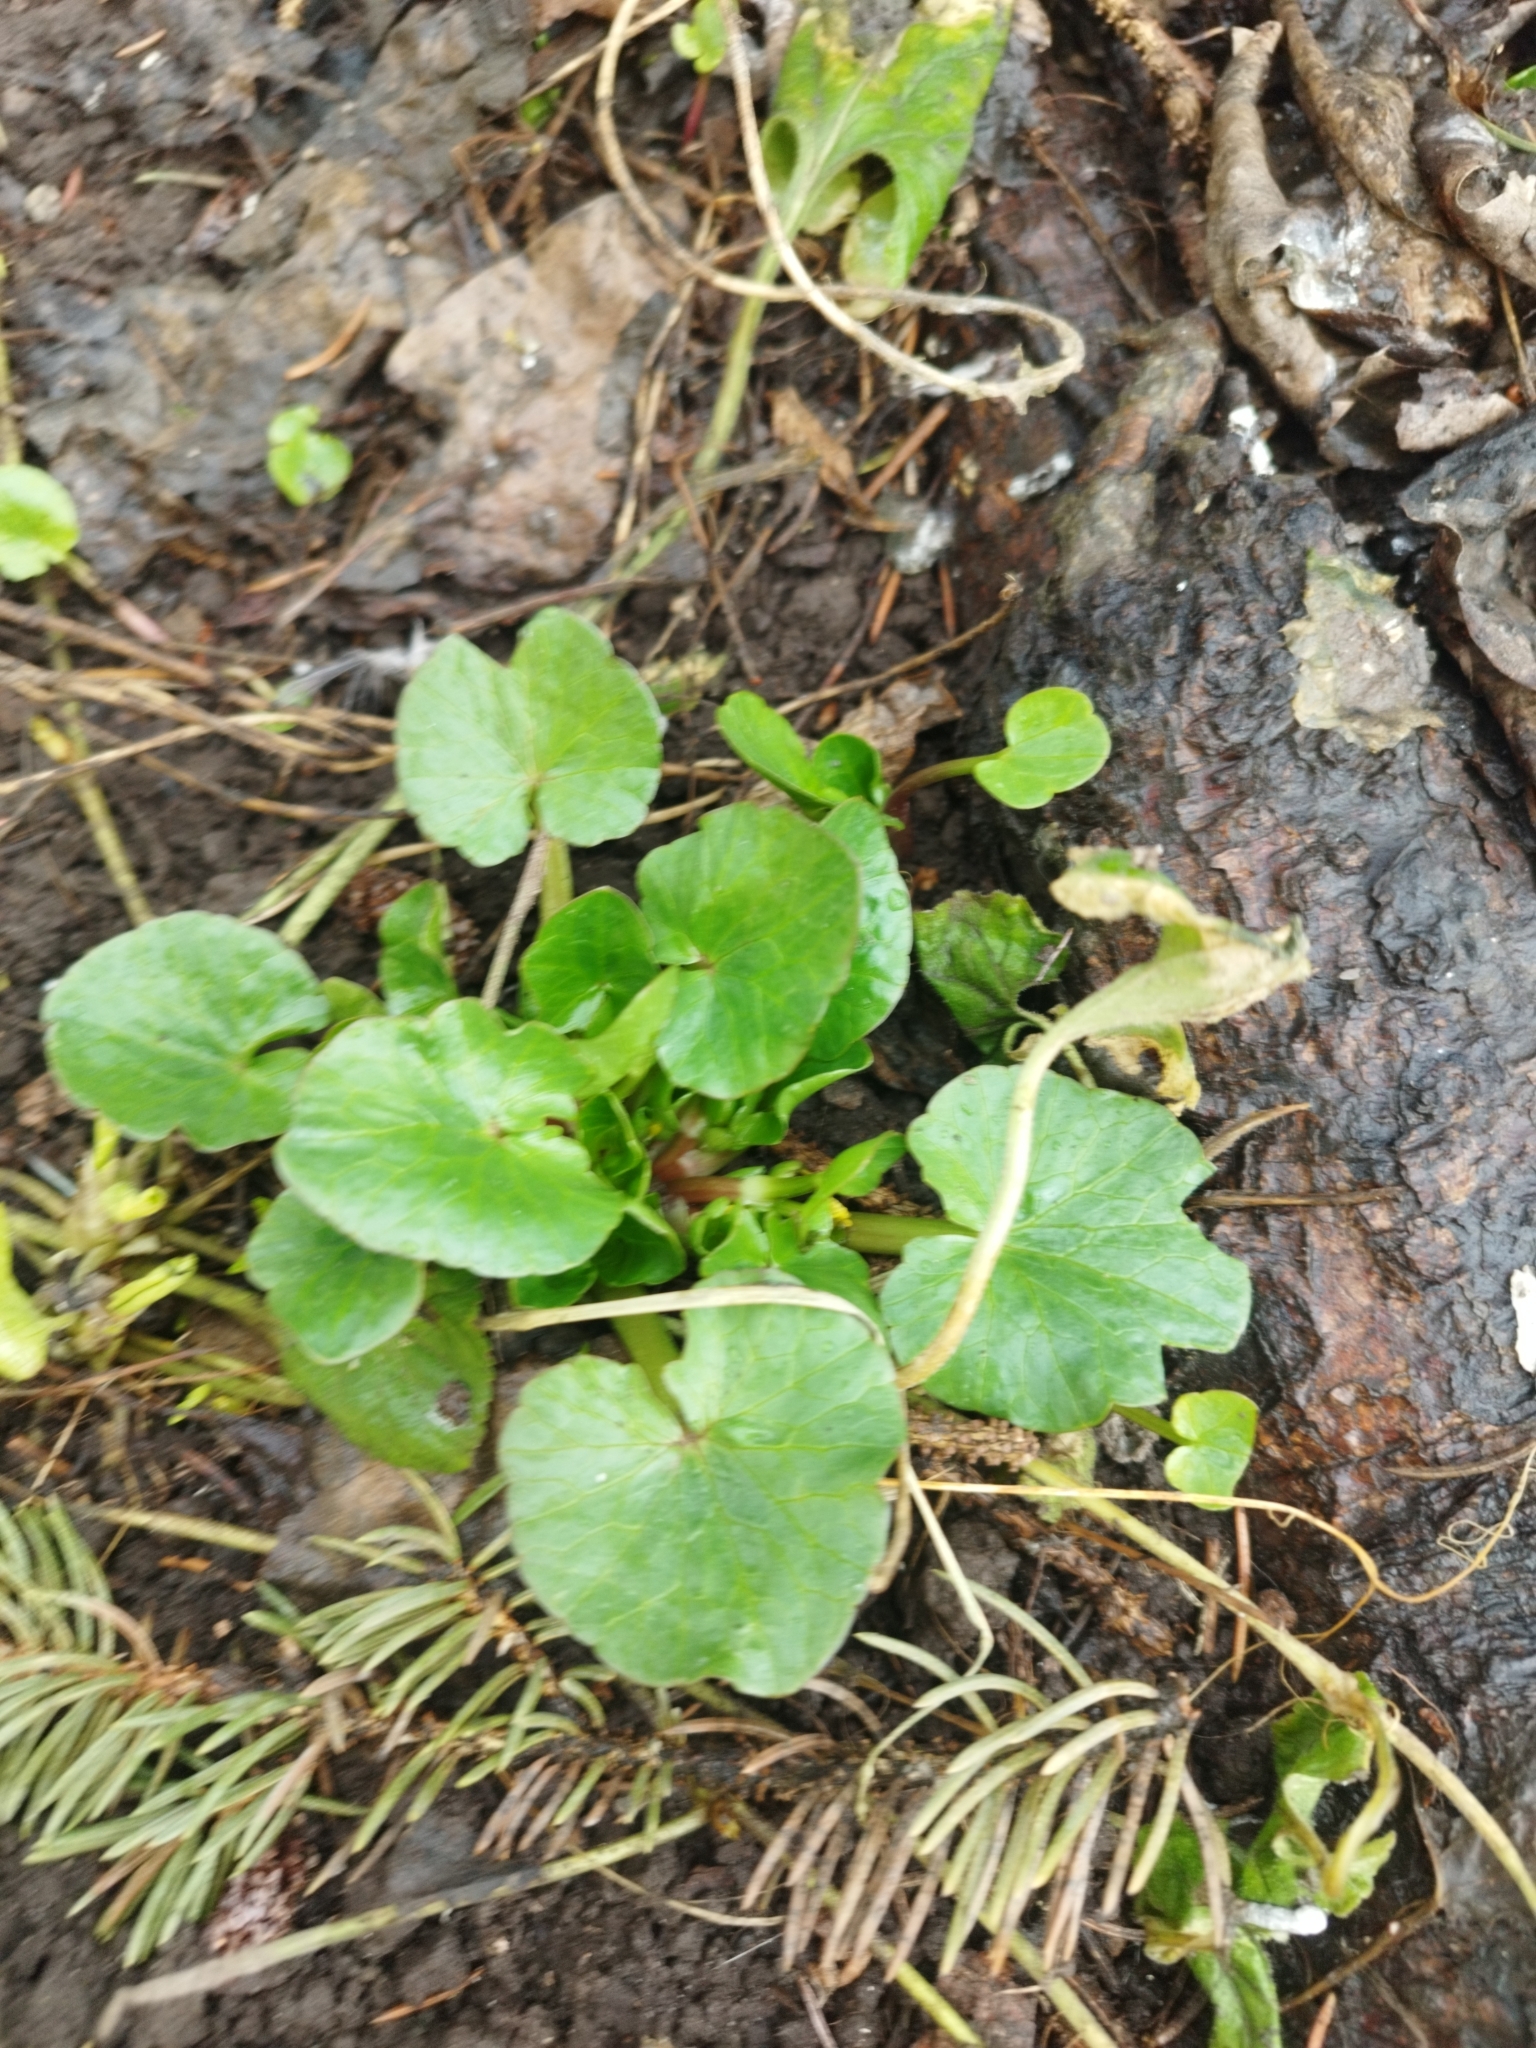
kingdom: Plantae
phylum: Tracheophyta
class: Magnoliopsida
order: Ranunculales
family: Ranunculaceae
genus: Ficaria
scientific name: Ficaria verna
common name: Lesser celandine
